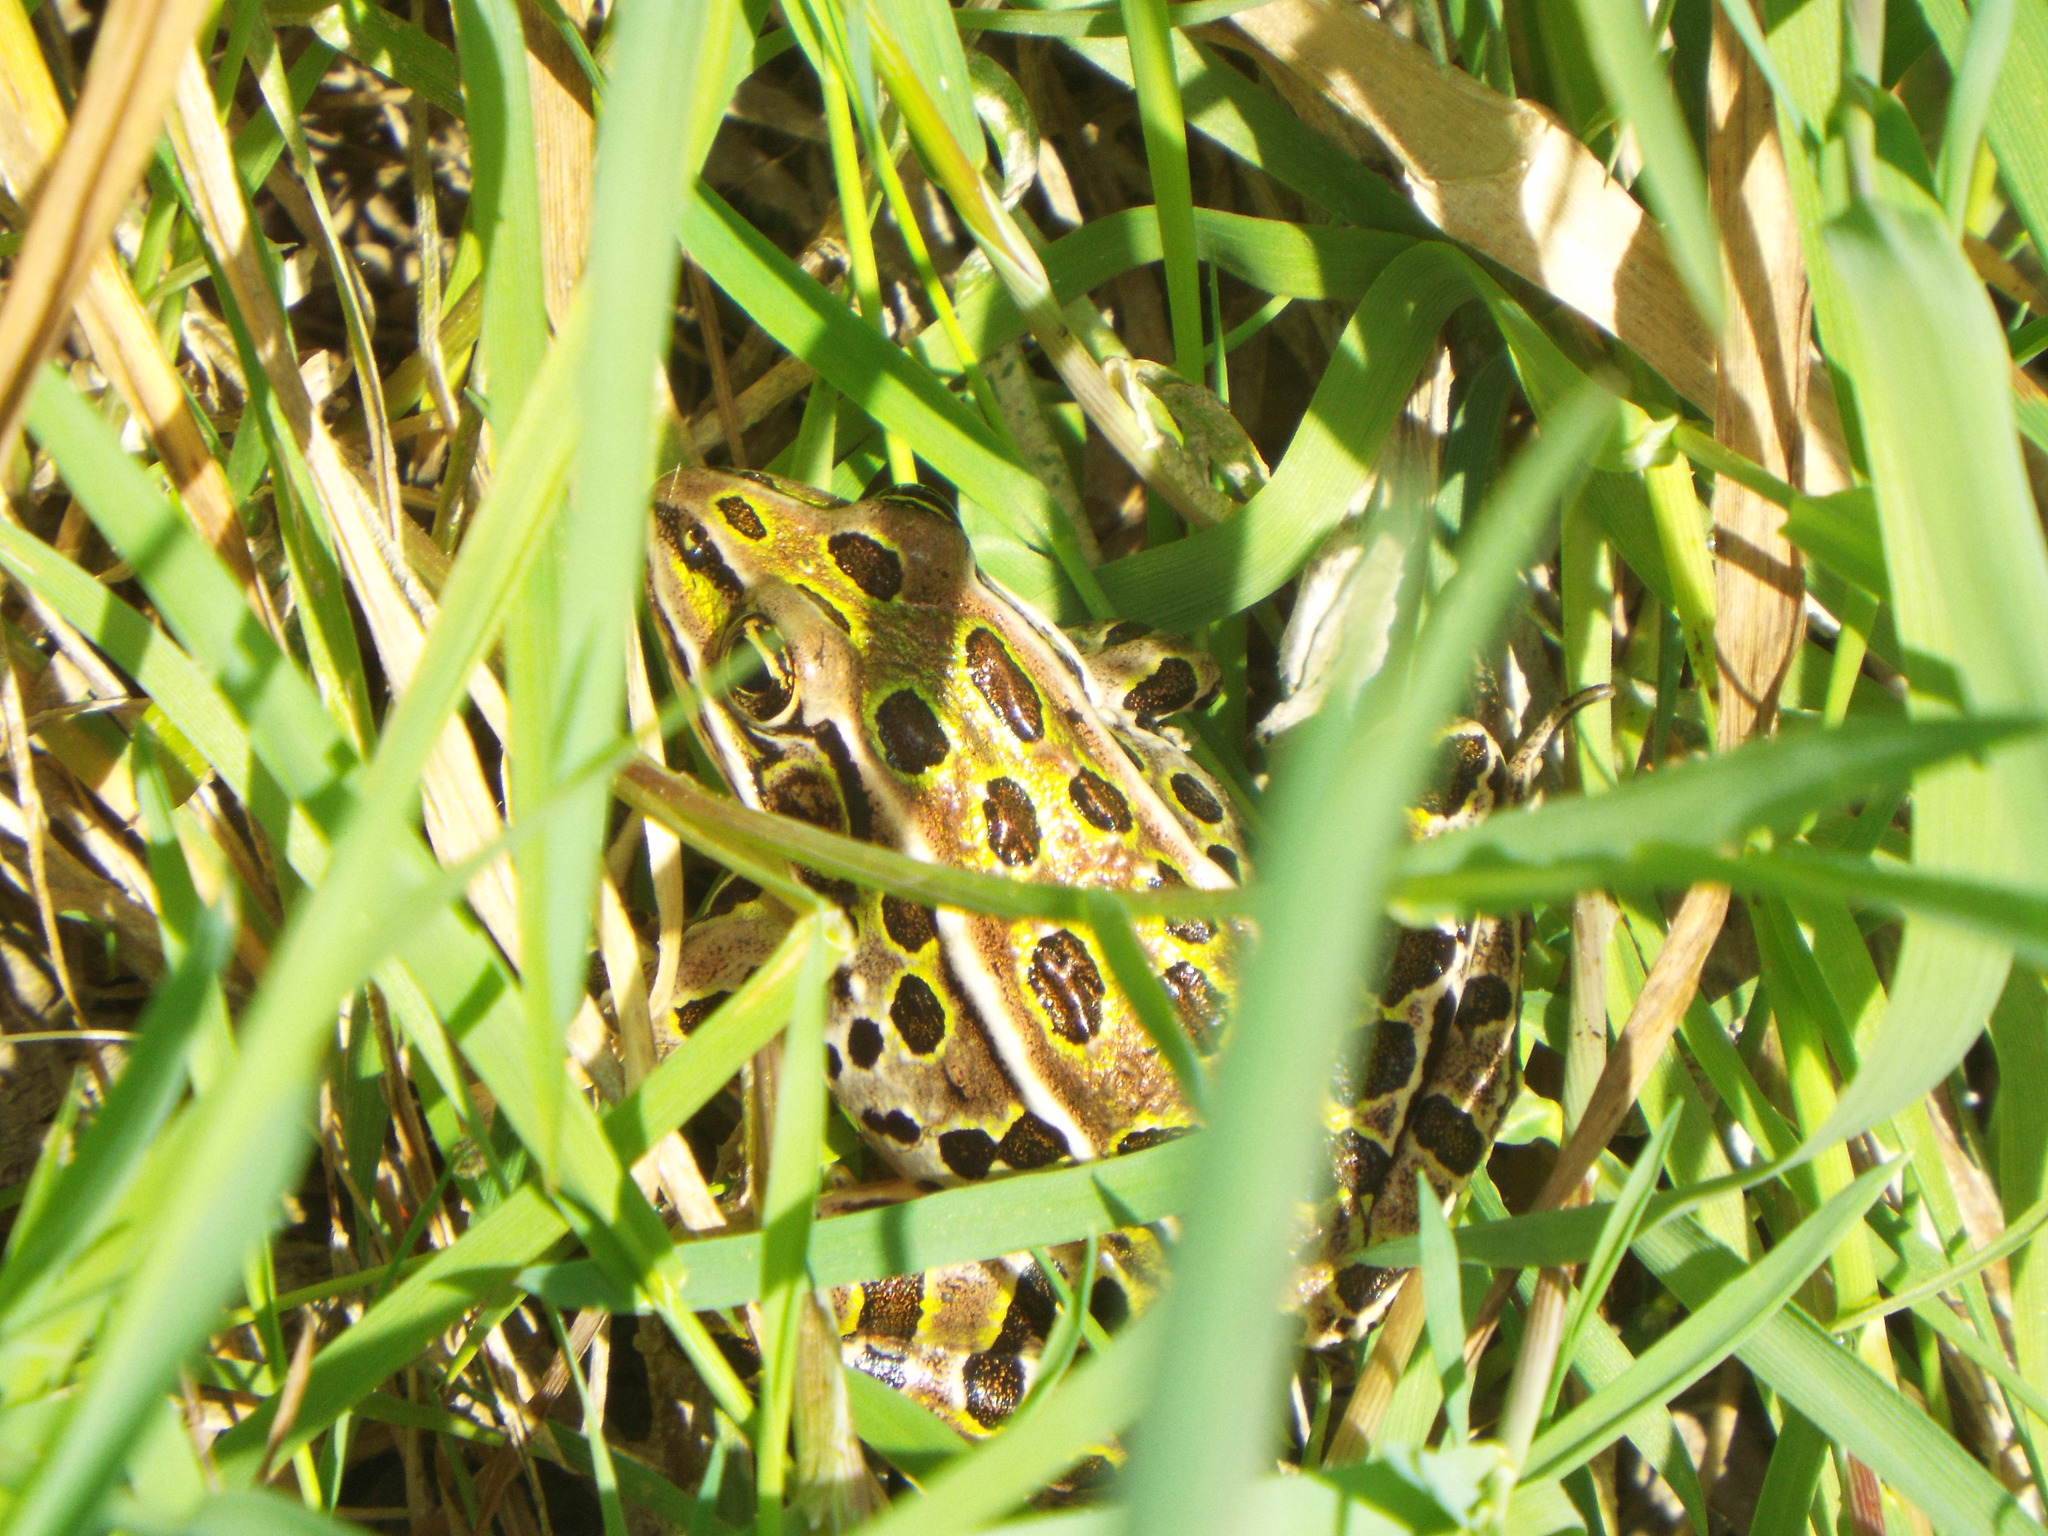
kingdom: Animalia
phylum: Chordata
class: Amphibia
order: Anura
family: Ranidae
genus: Lithobates
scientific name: Lithobates pipiens
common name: Northern leopard frog
